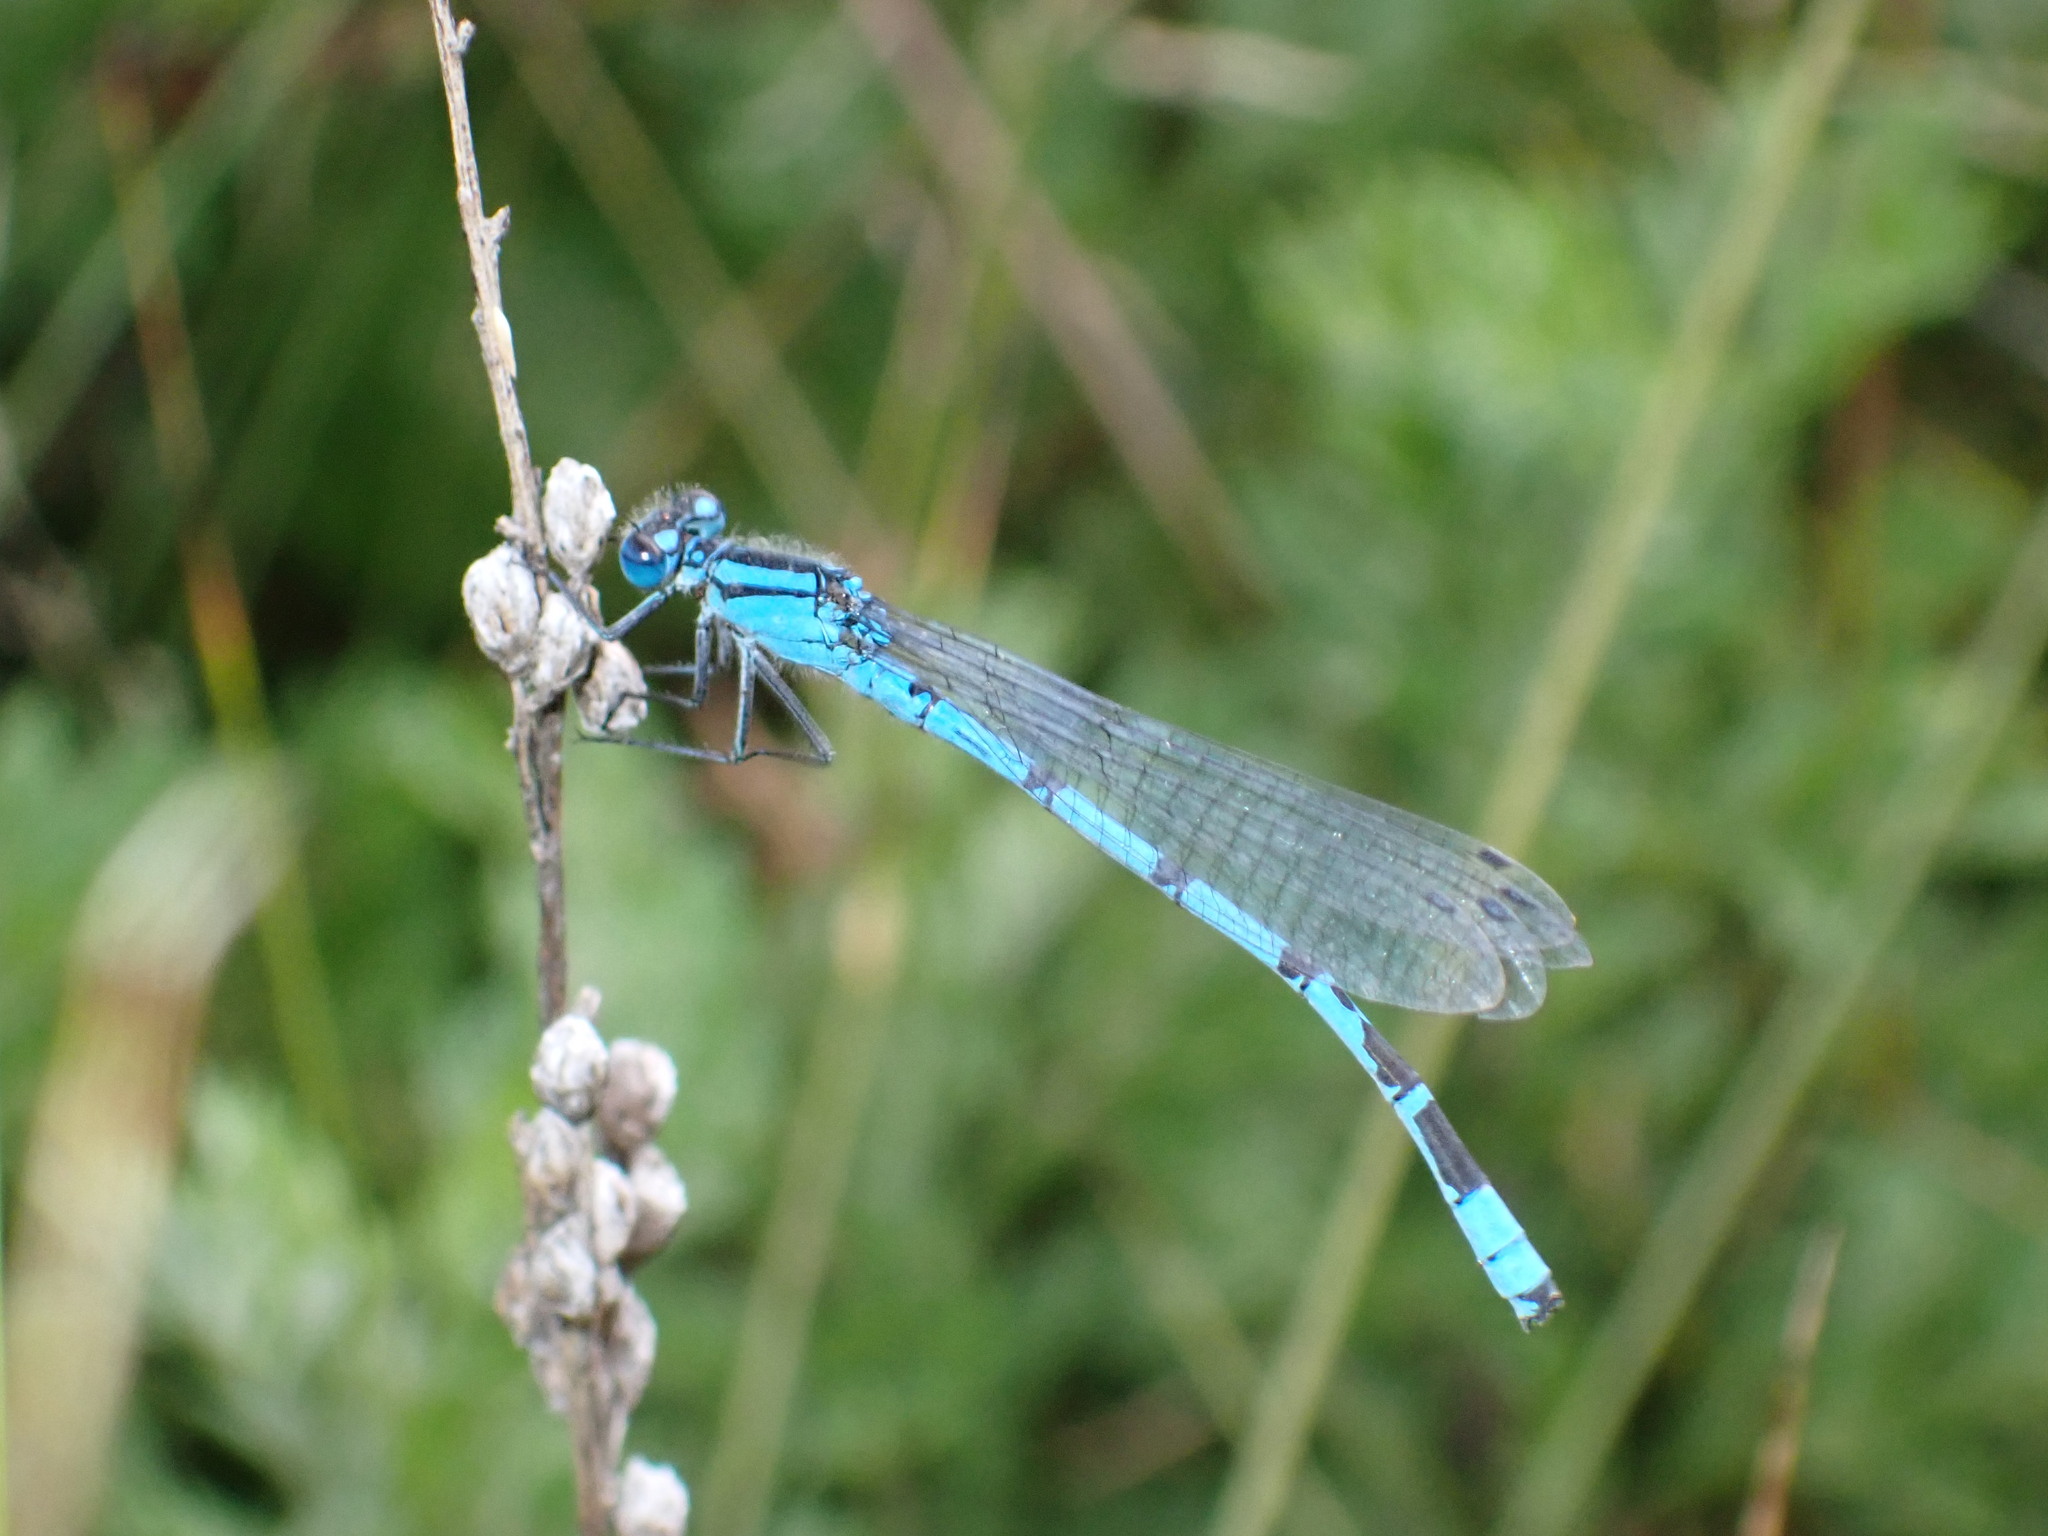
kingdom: Animalia
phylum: Arthropoda
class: Insecta
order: Odonata
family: Coenagrionidae
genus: Enallagma
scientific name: Enallagma cyathigerum
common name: Common blue damselfly
